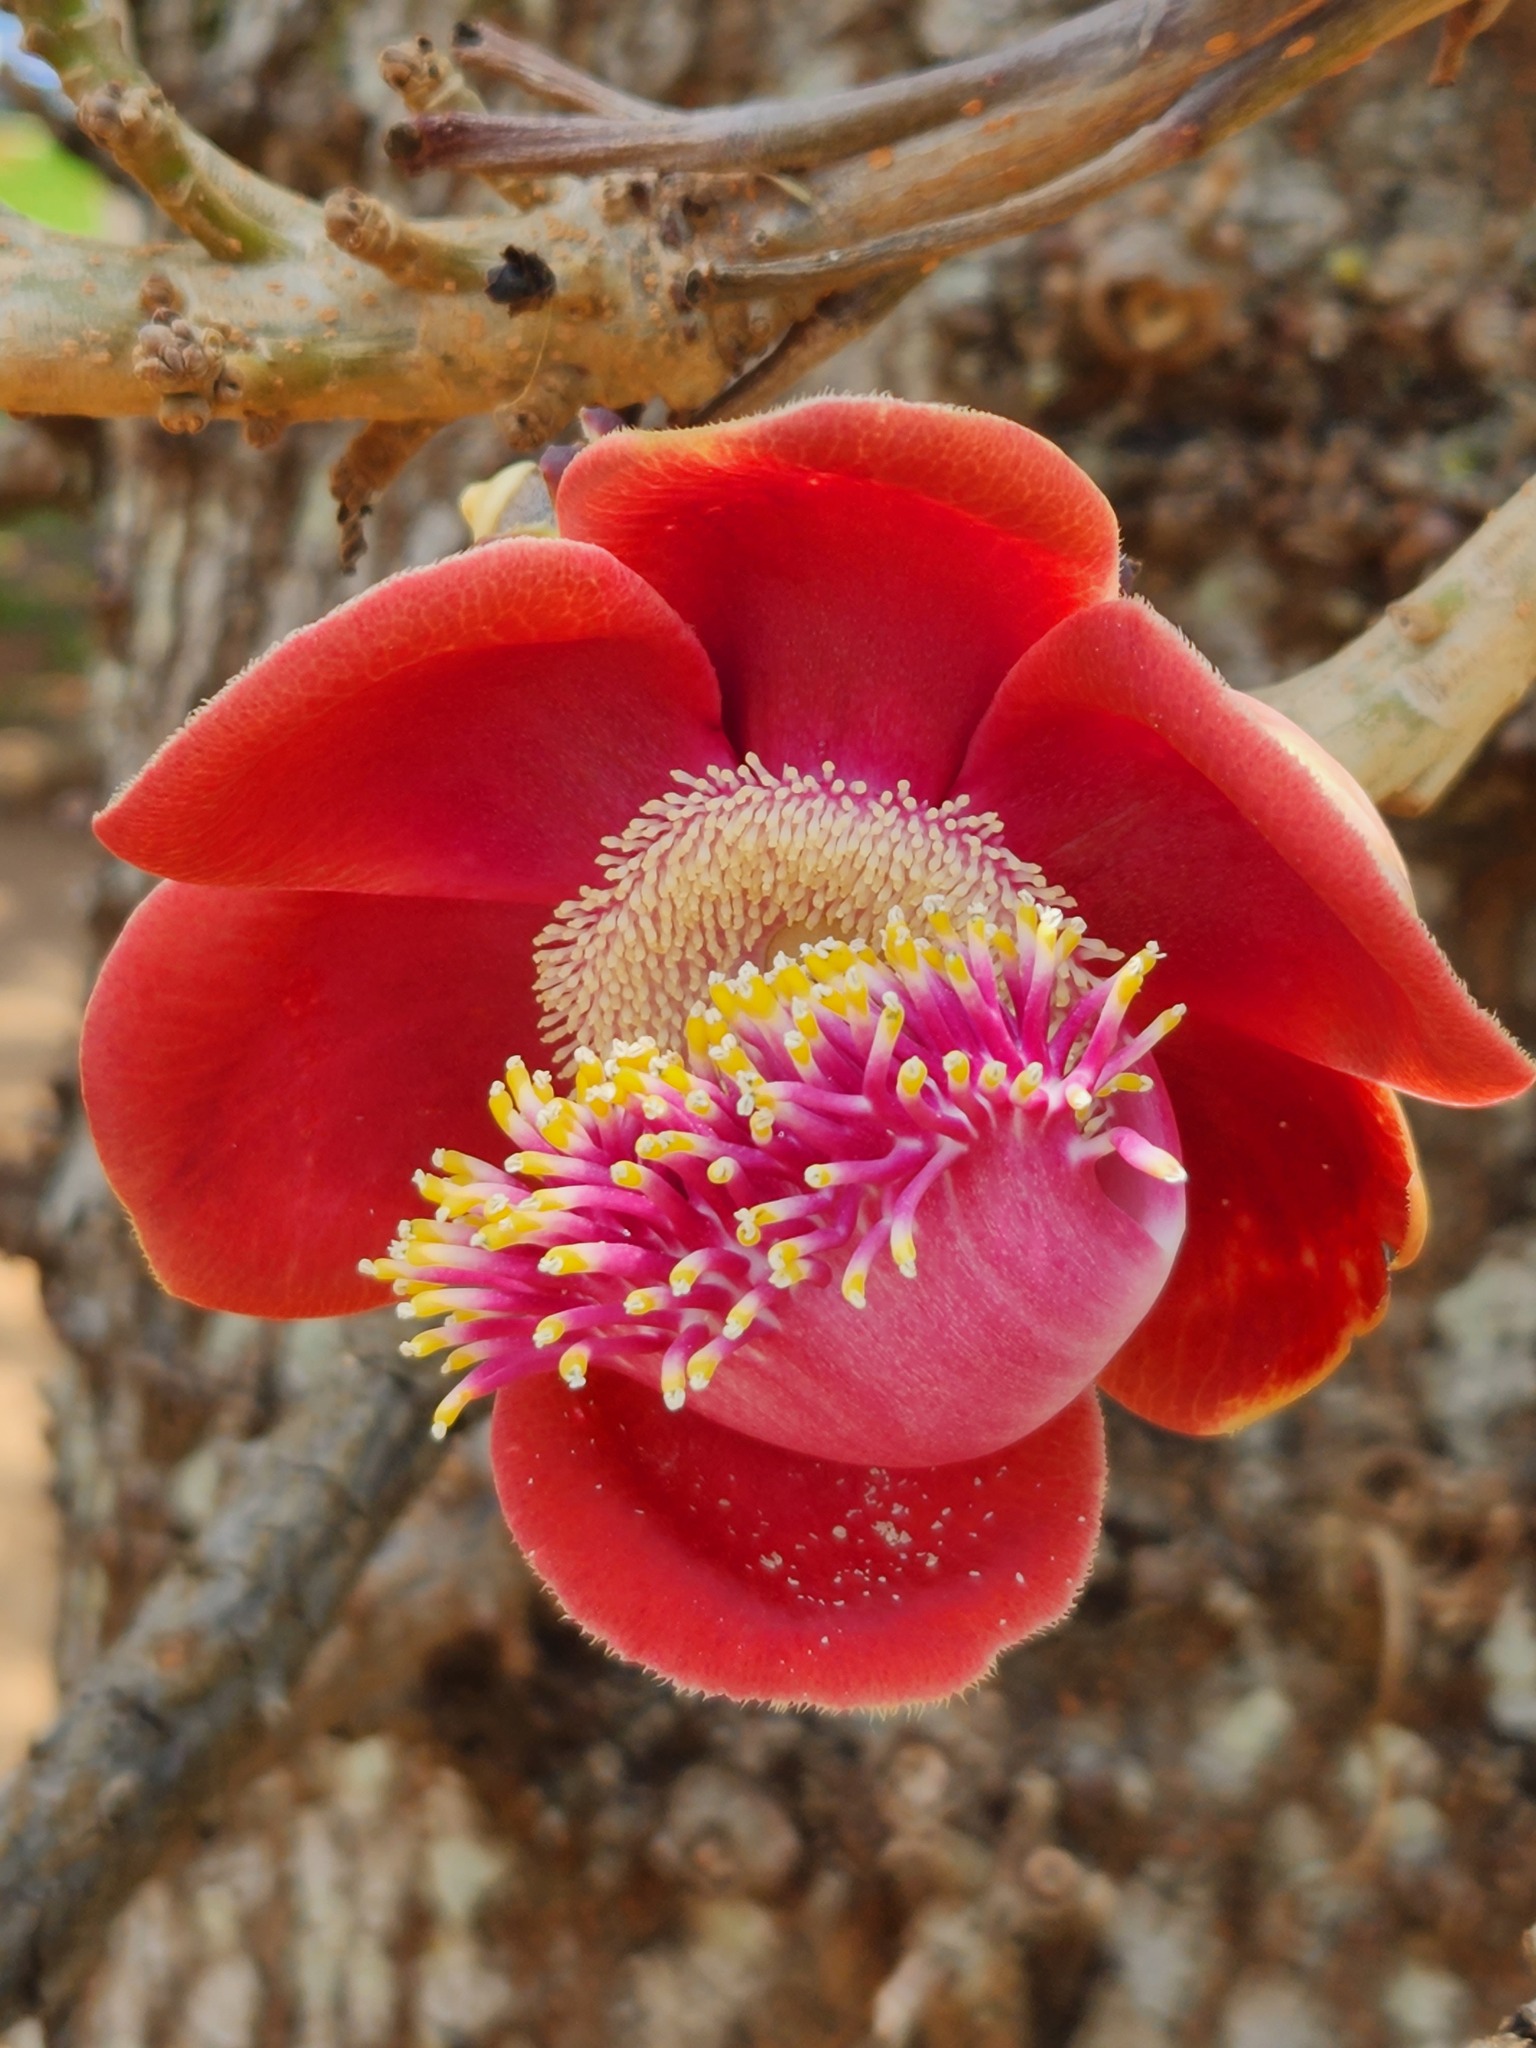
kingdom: Plantae
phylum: Tracheophyta
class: Magnoliopsida
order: Ericales
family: Lecythidaceae
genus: Couroupita
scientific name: Couroupita guianensis
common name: Cannonball tree
